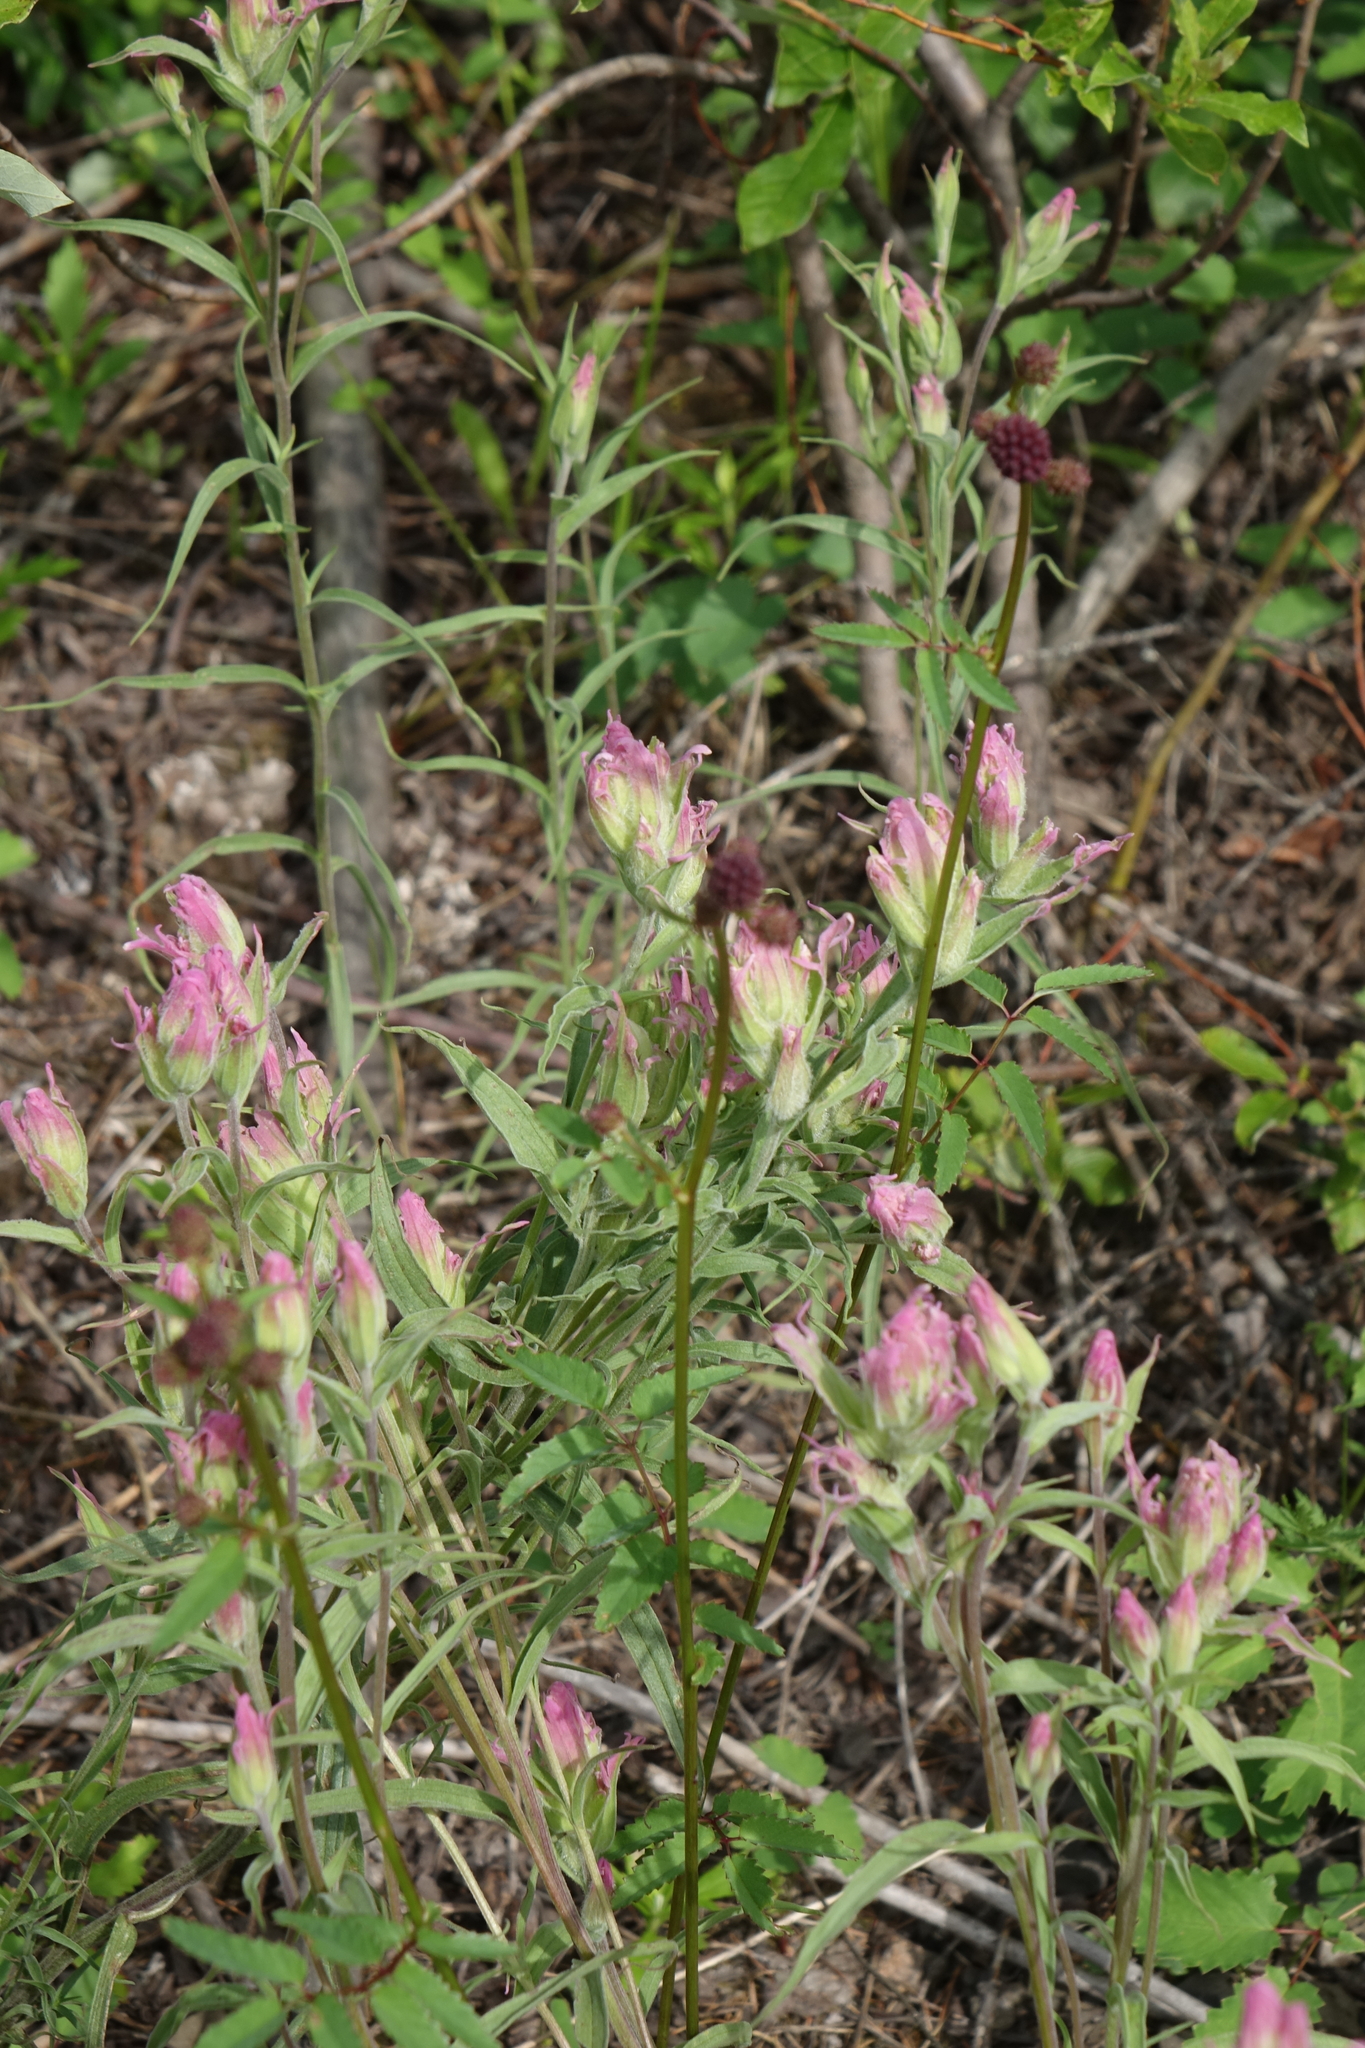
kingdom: Plantae
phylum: Tracheophyta
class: Magnoliopsida
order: Lamiales
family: Orobanchaceae
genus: Castilleja
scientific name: Castilleja rubra
